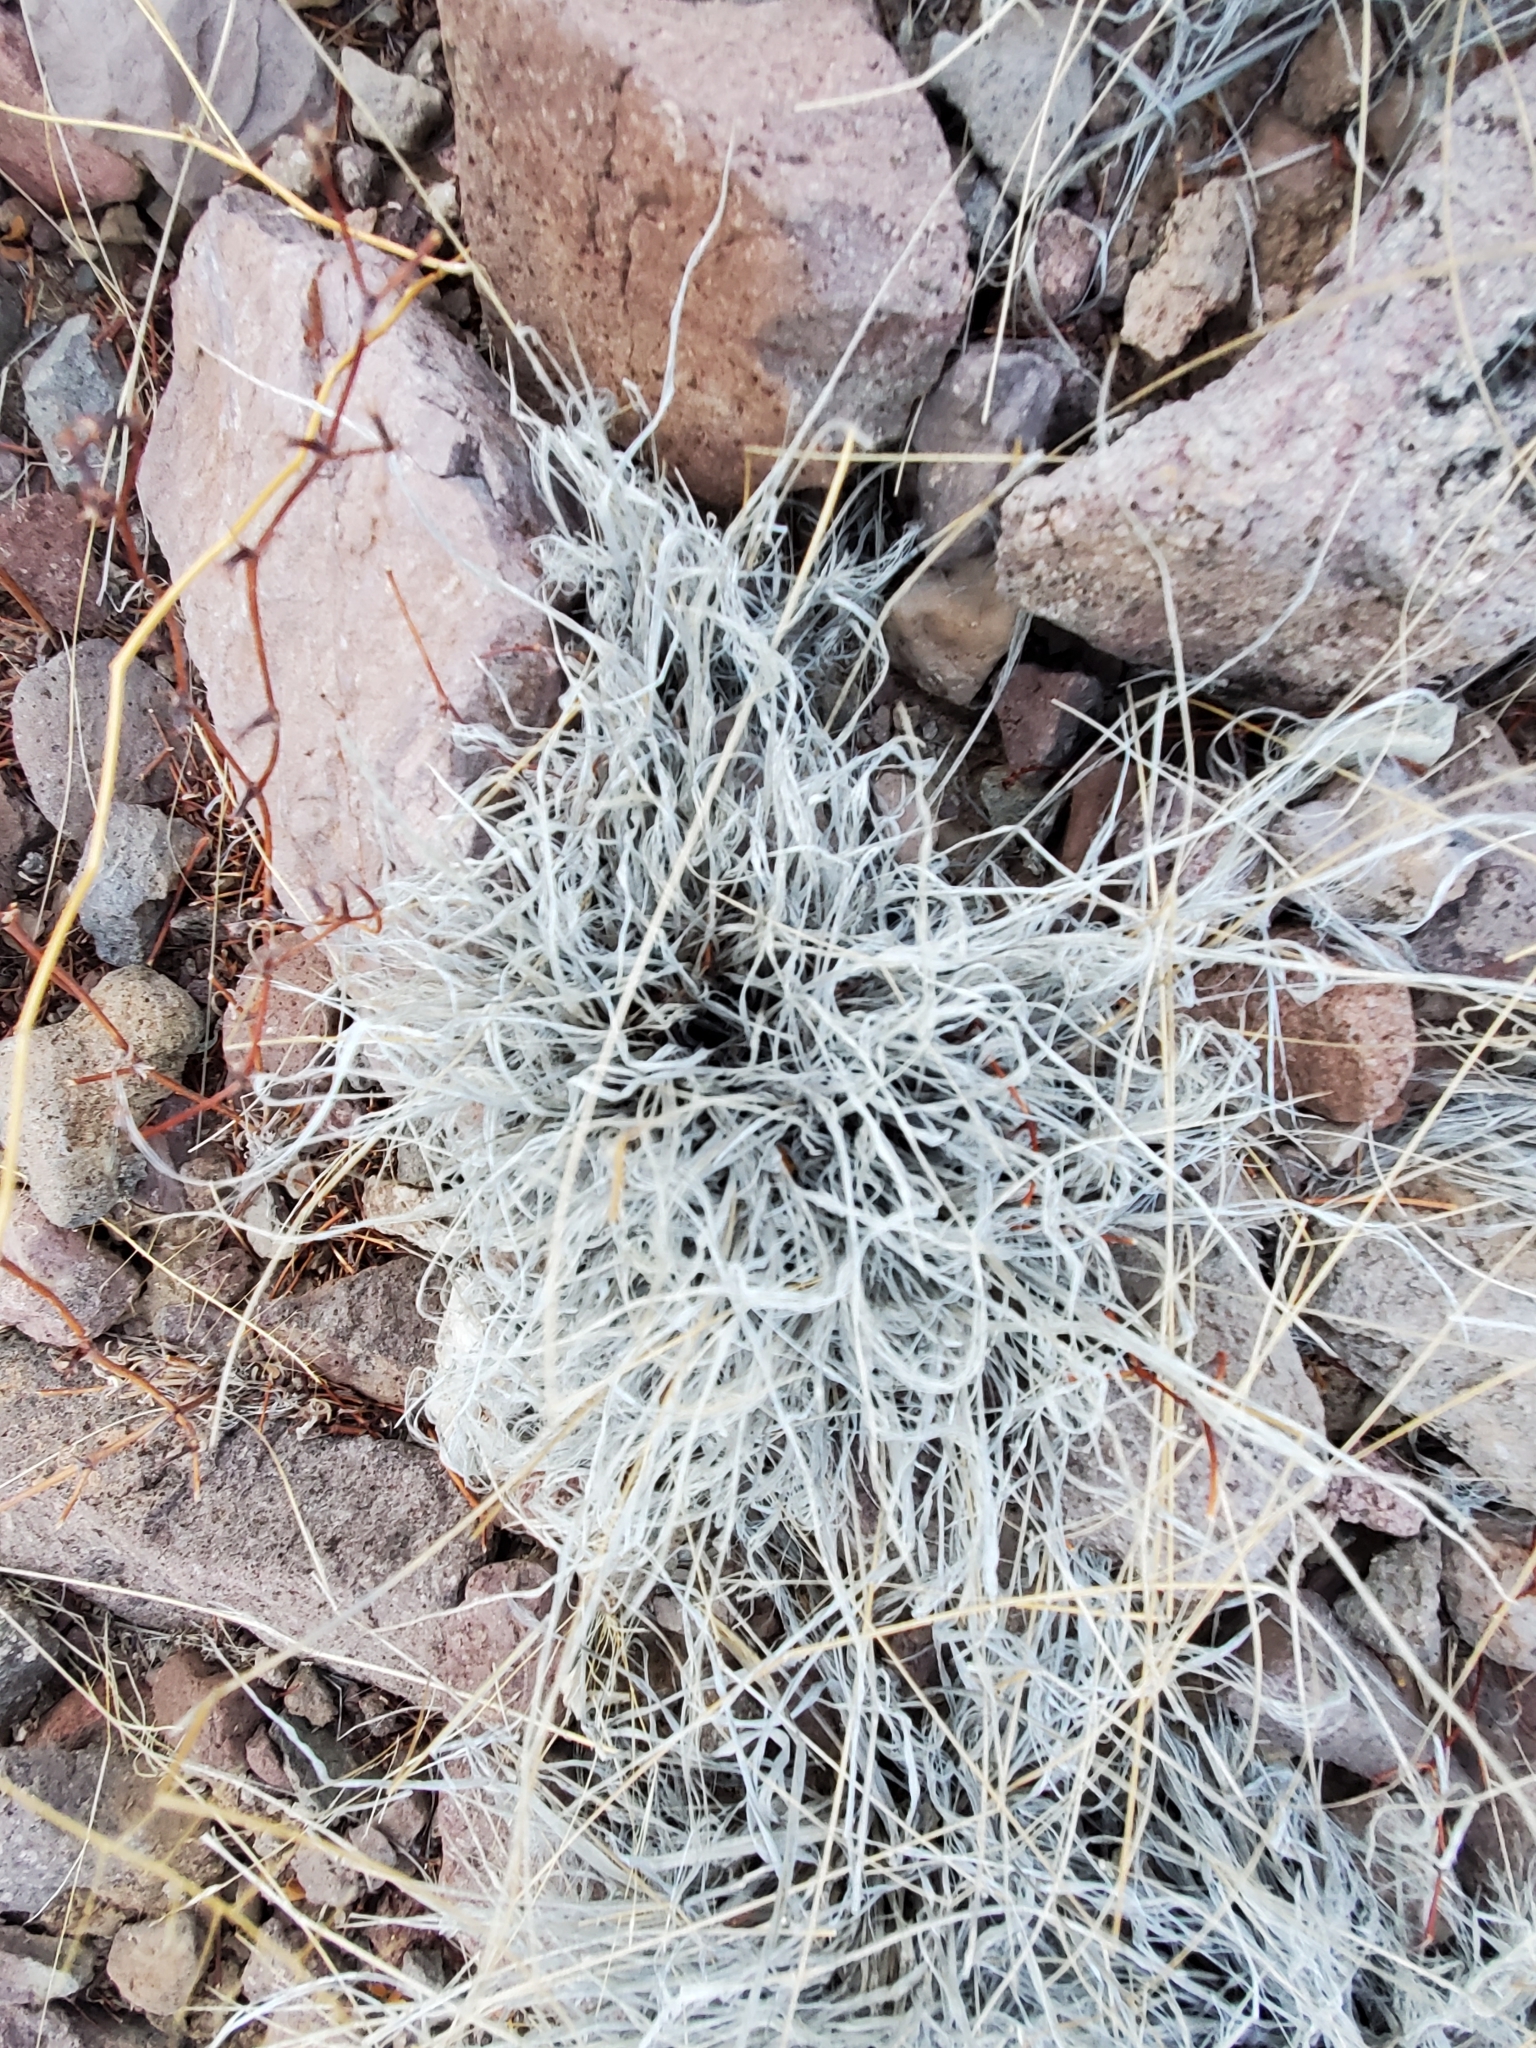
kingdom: Plantae
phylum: Tracheophyta
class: Liliopsida
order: Poales
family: Poaceae
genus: Dasyochloa
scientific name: Dasyochloa pulchella
